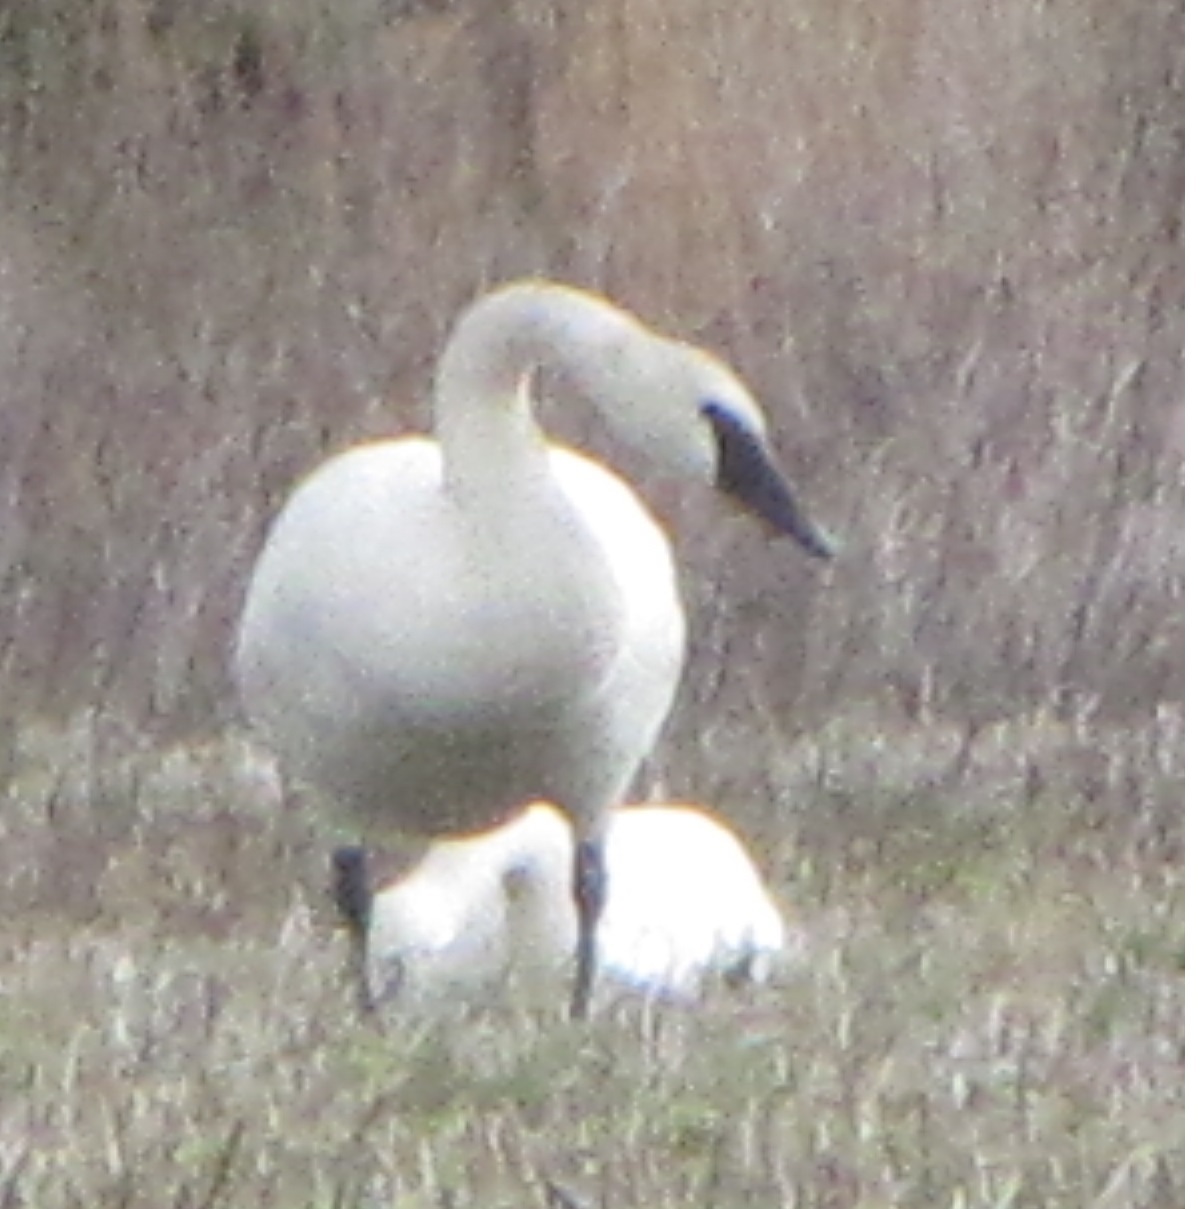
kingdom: Animalia
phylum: Chordata
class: Aves
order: Anseriformes
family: Anatidae
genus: Cygnus
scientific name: Cygnus buccinator
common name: Trumpeter swan
